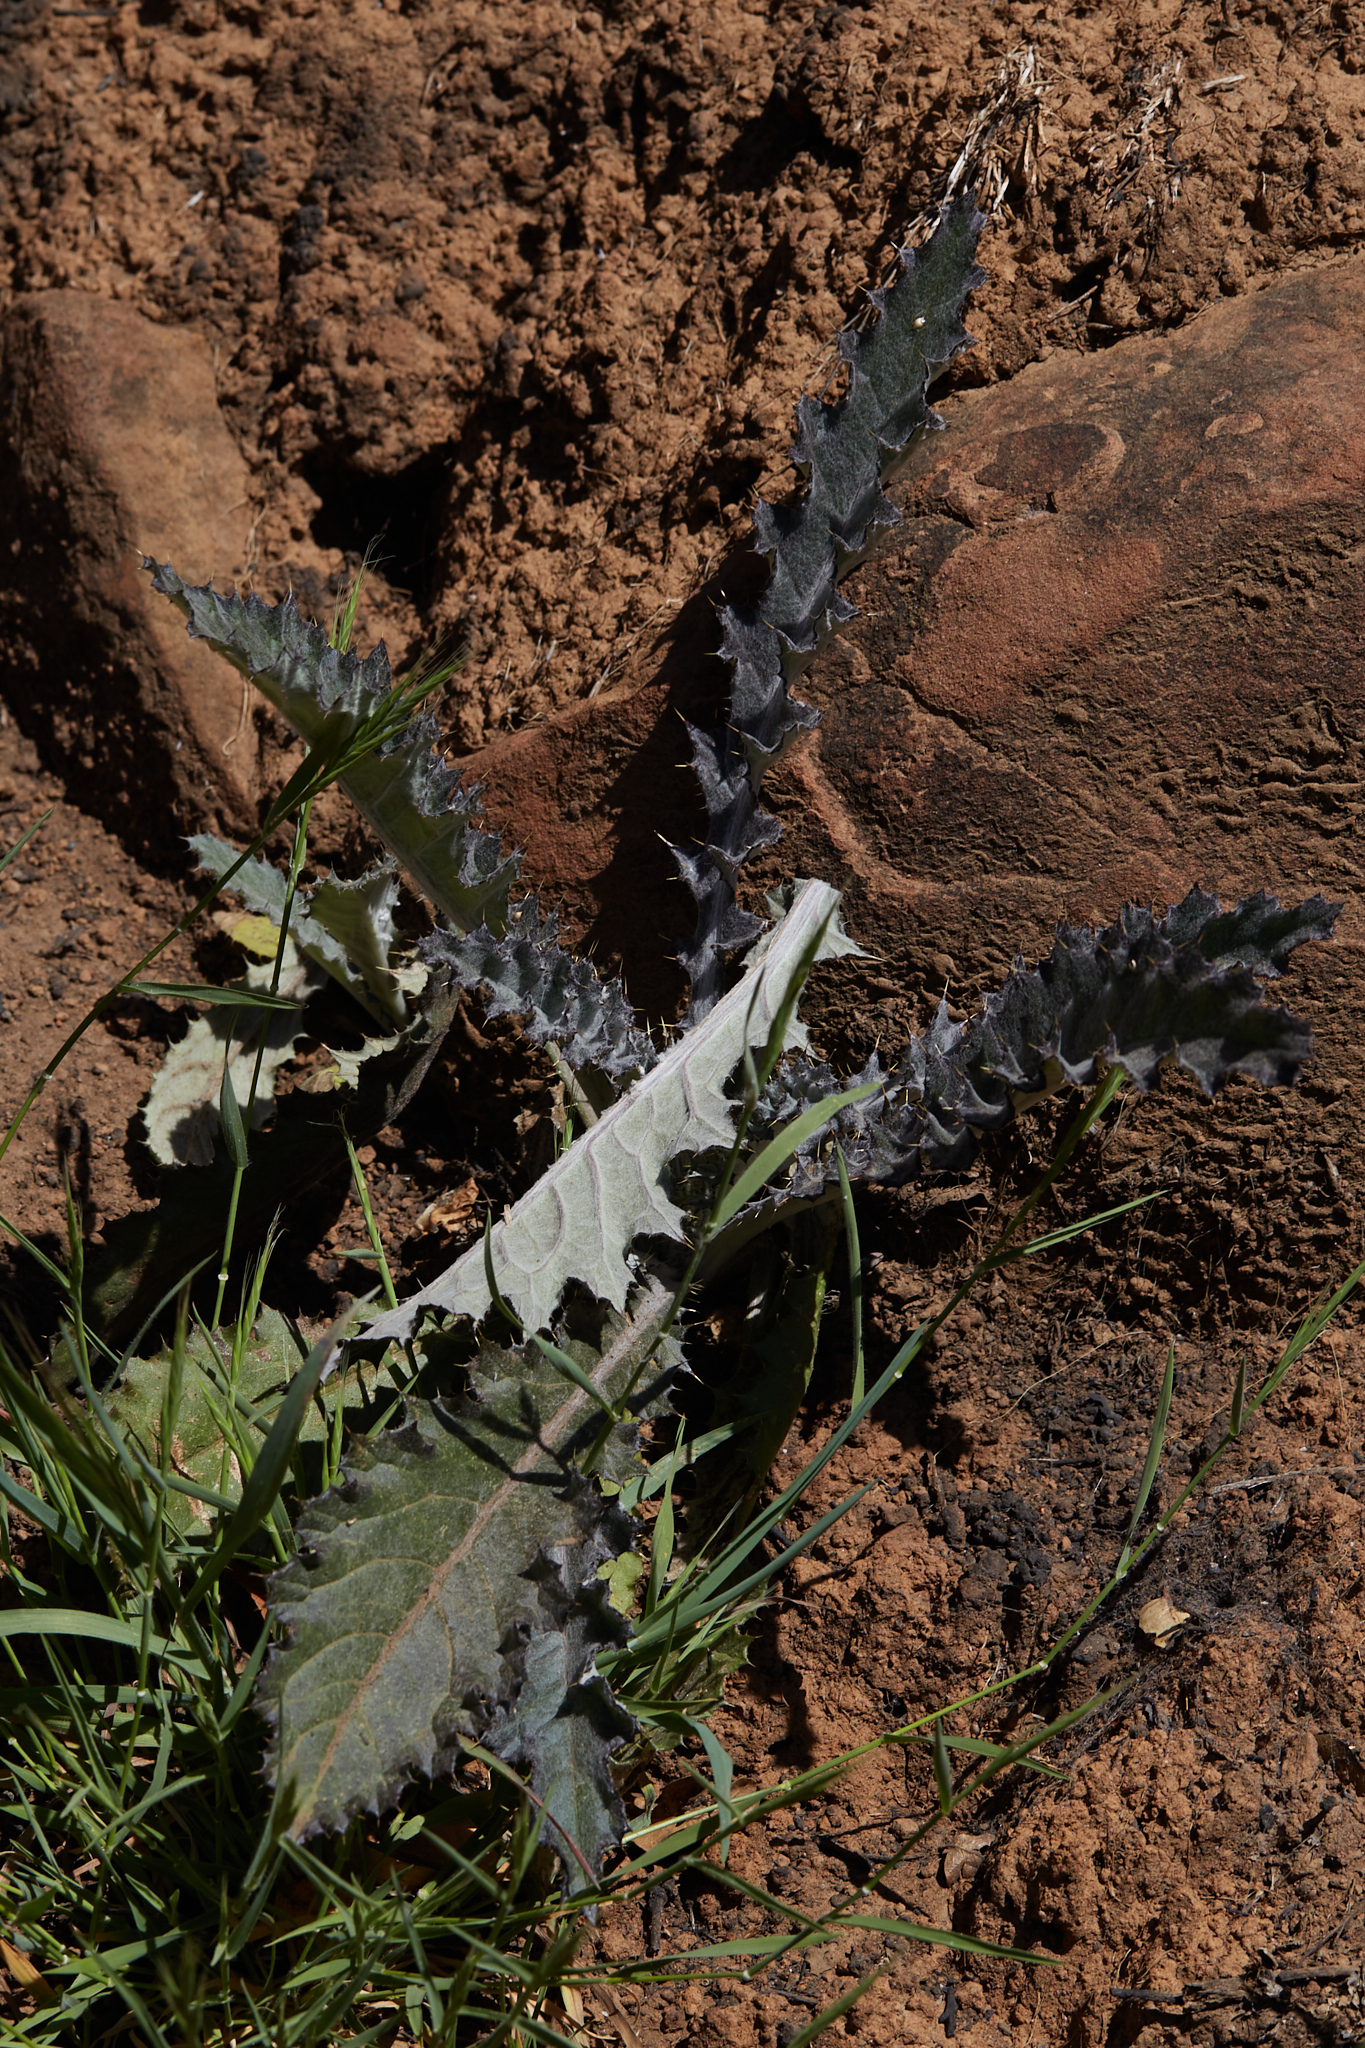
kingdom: Plantae
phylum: Tracheophyta
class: Magnoliopsida
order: Asterales
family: Asteraceae
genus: Cirsium
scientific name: Cirsium occidentale
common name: Western thistle
